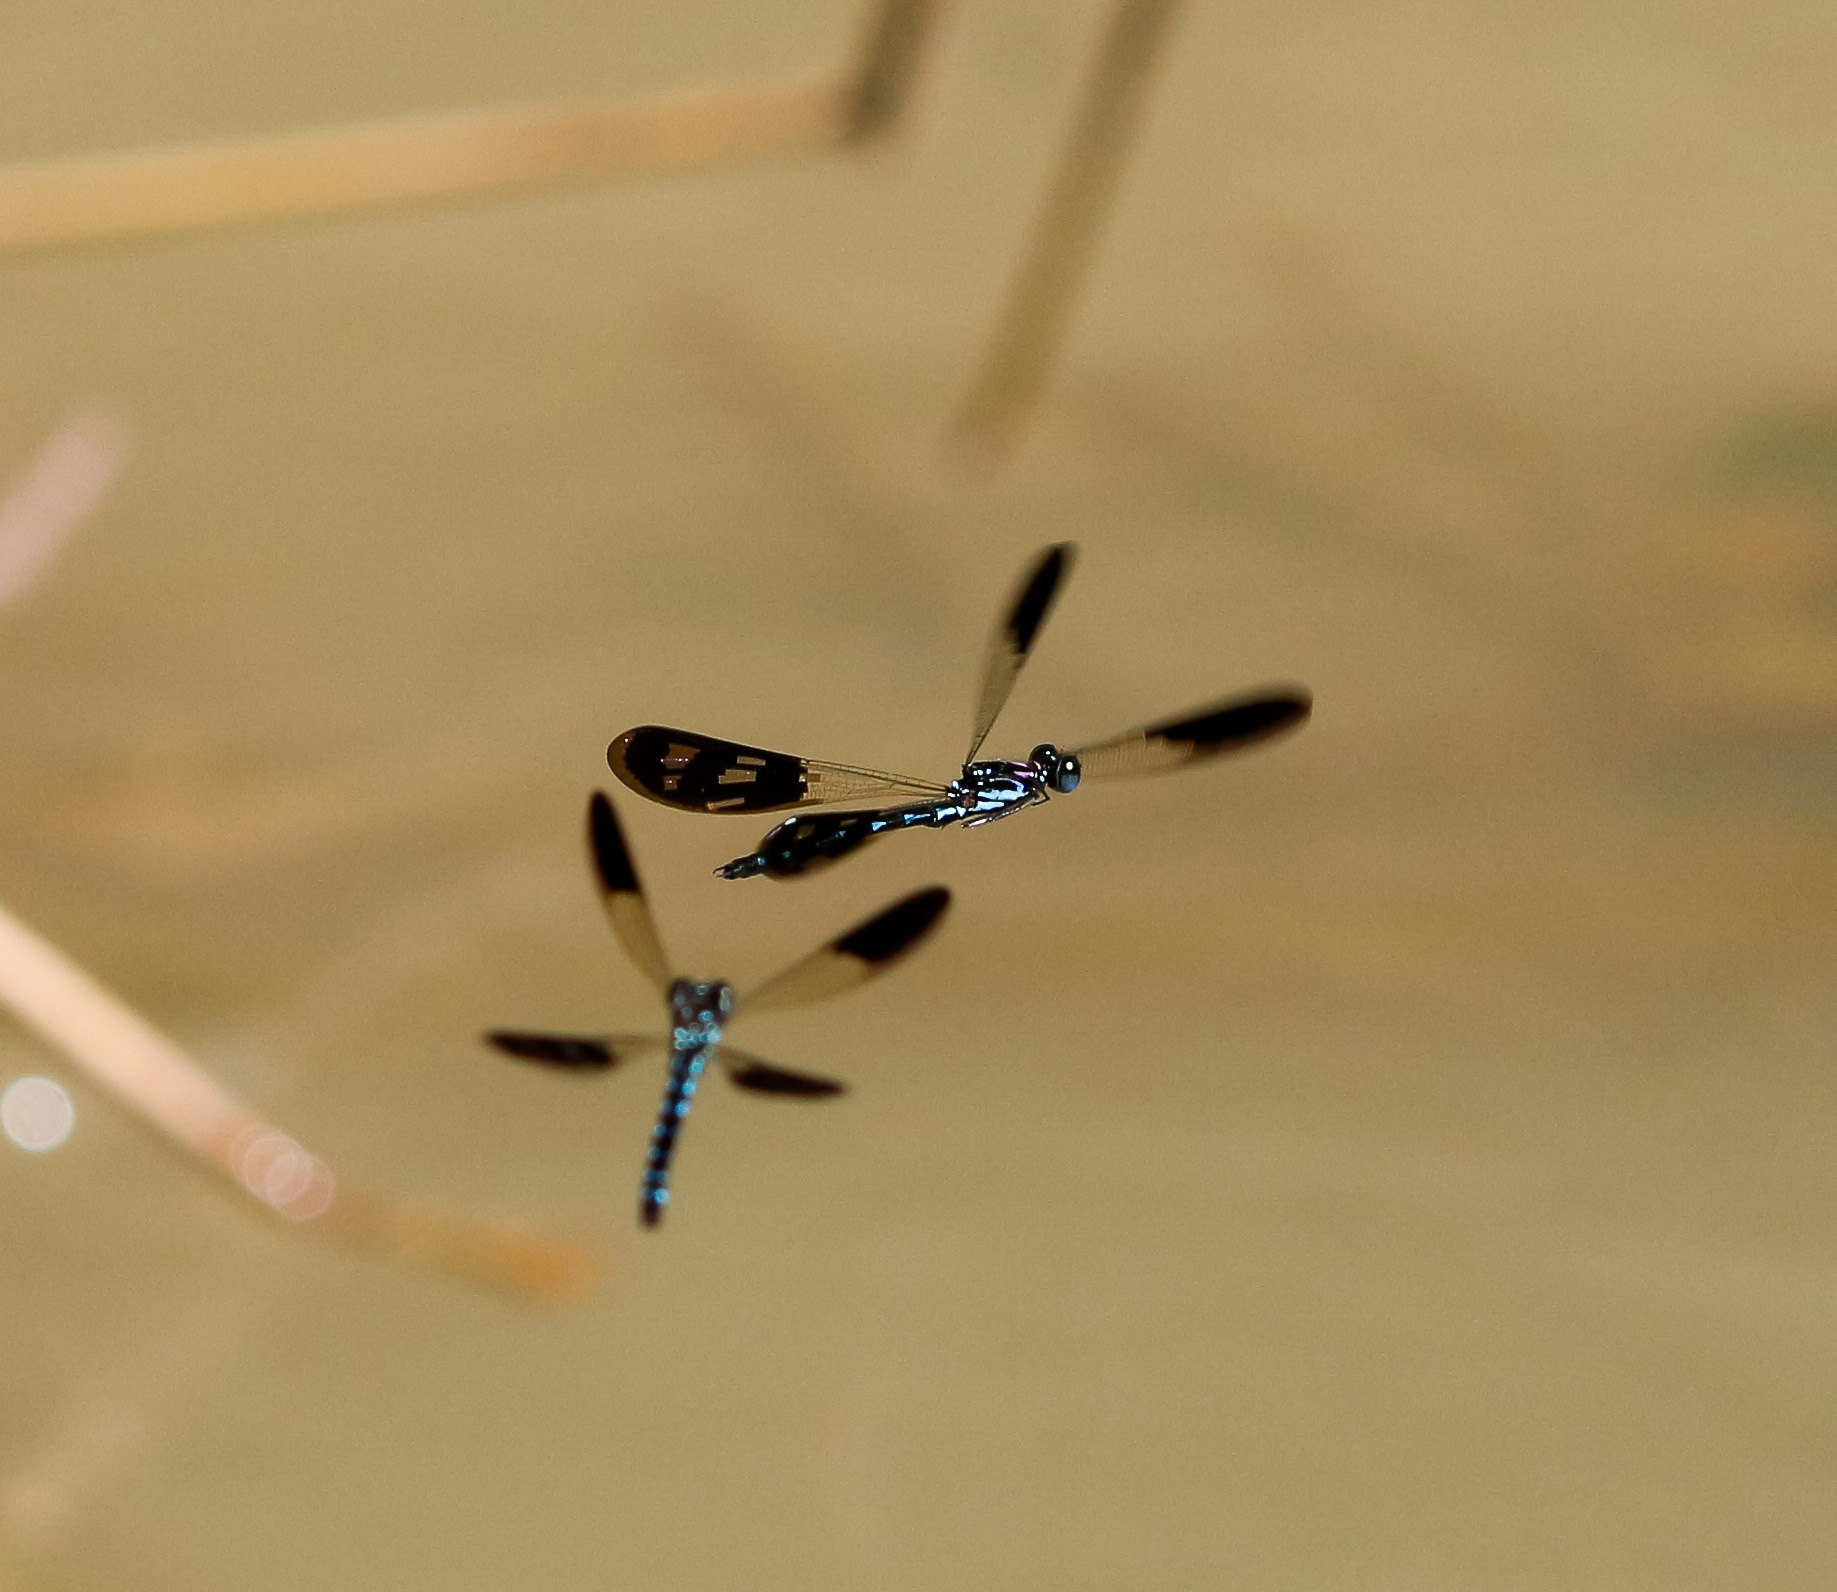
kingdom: Animalia
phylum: Arthropoda
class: Insecta
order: Odonata
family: Chlorocyphidae
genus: Heliocypha
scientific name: Heliocypha perforata
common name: Common blue jewel
